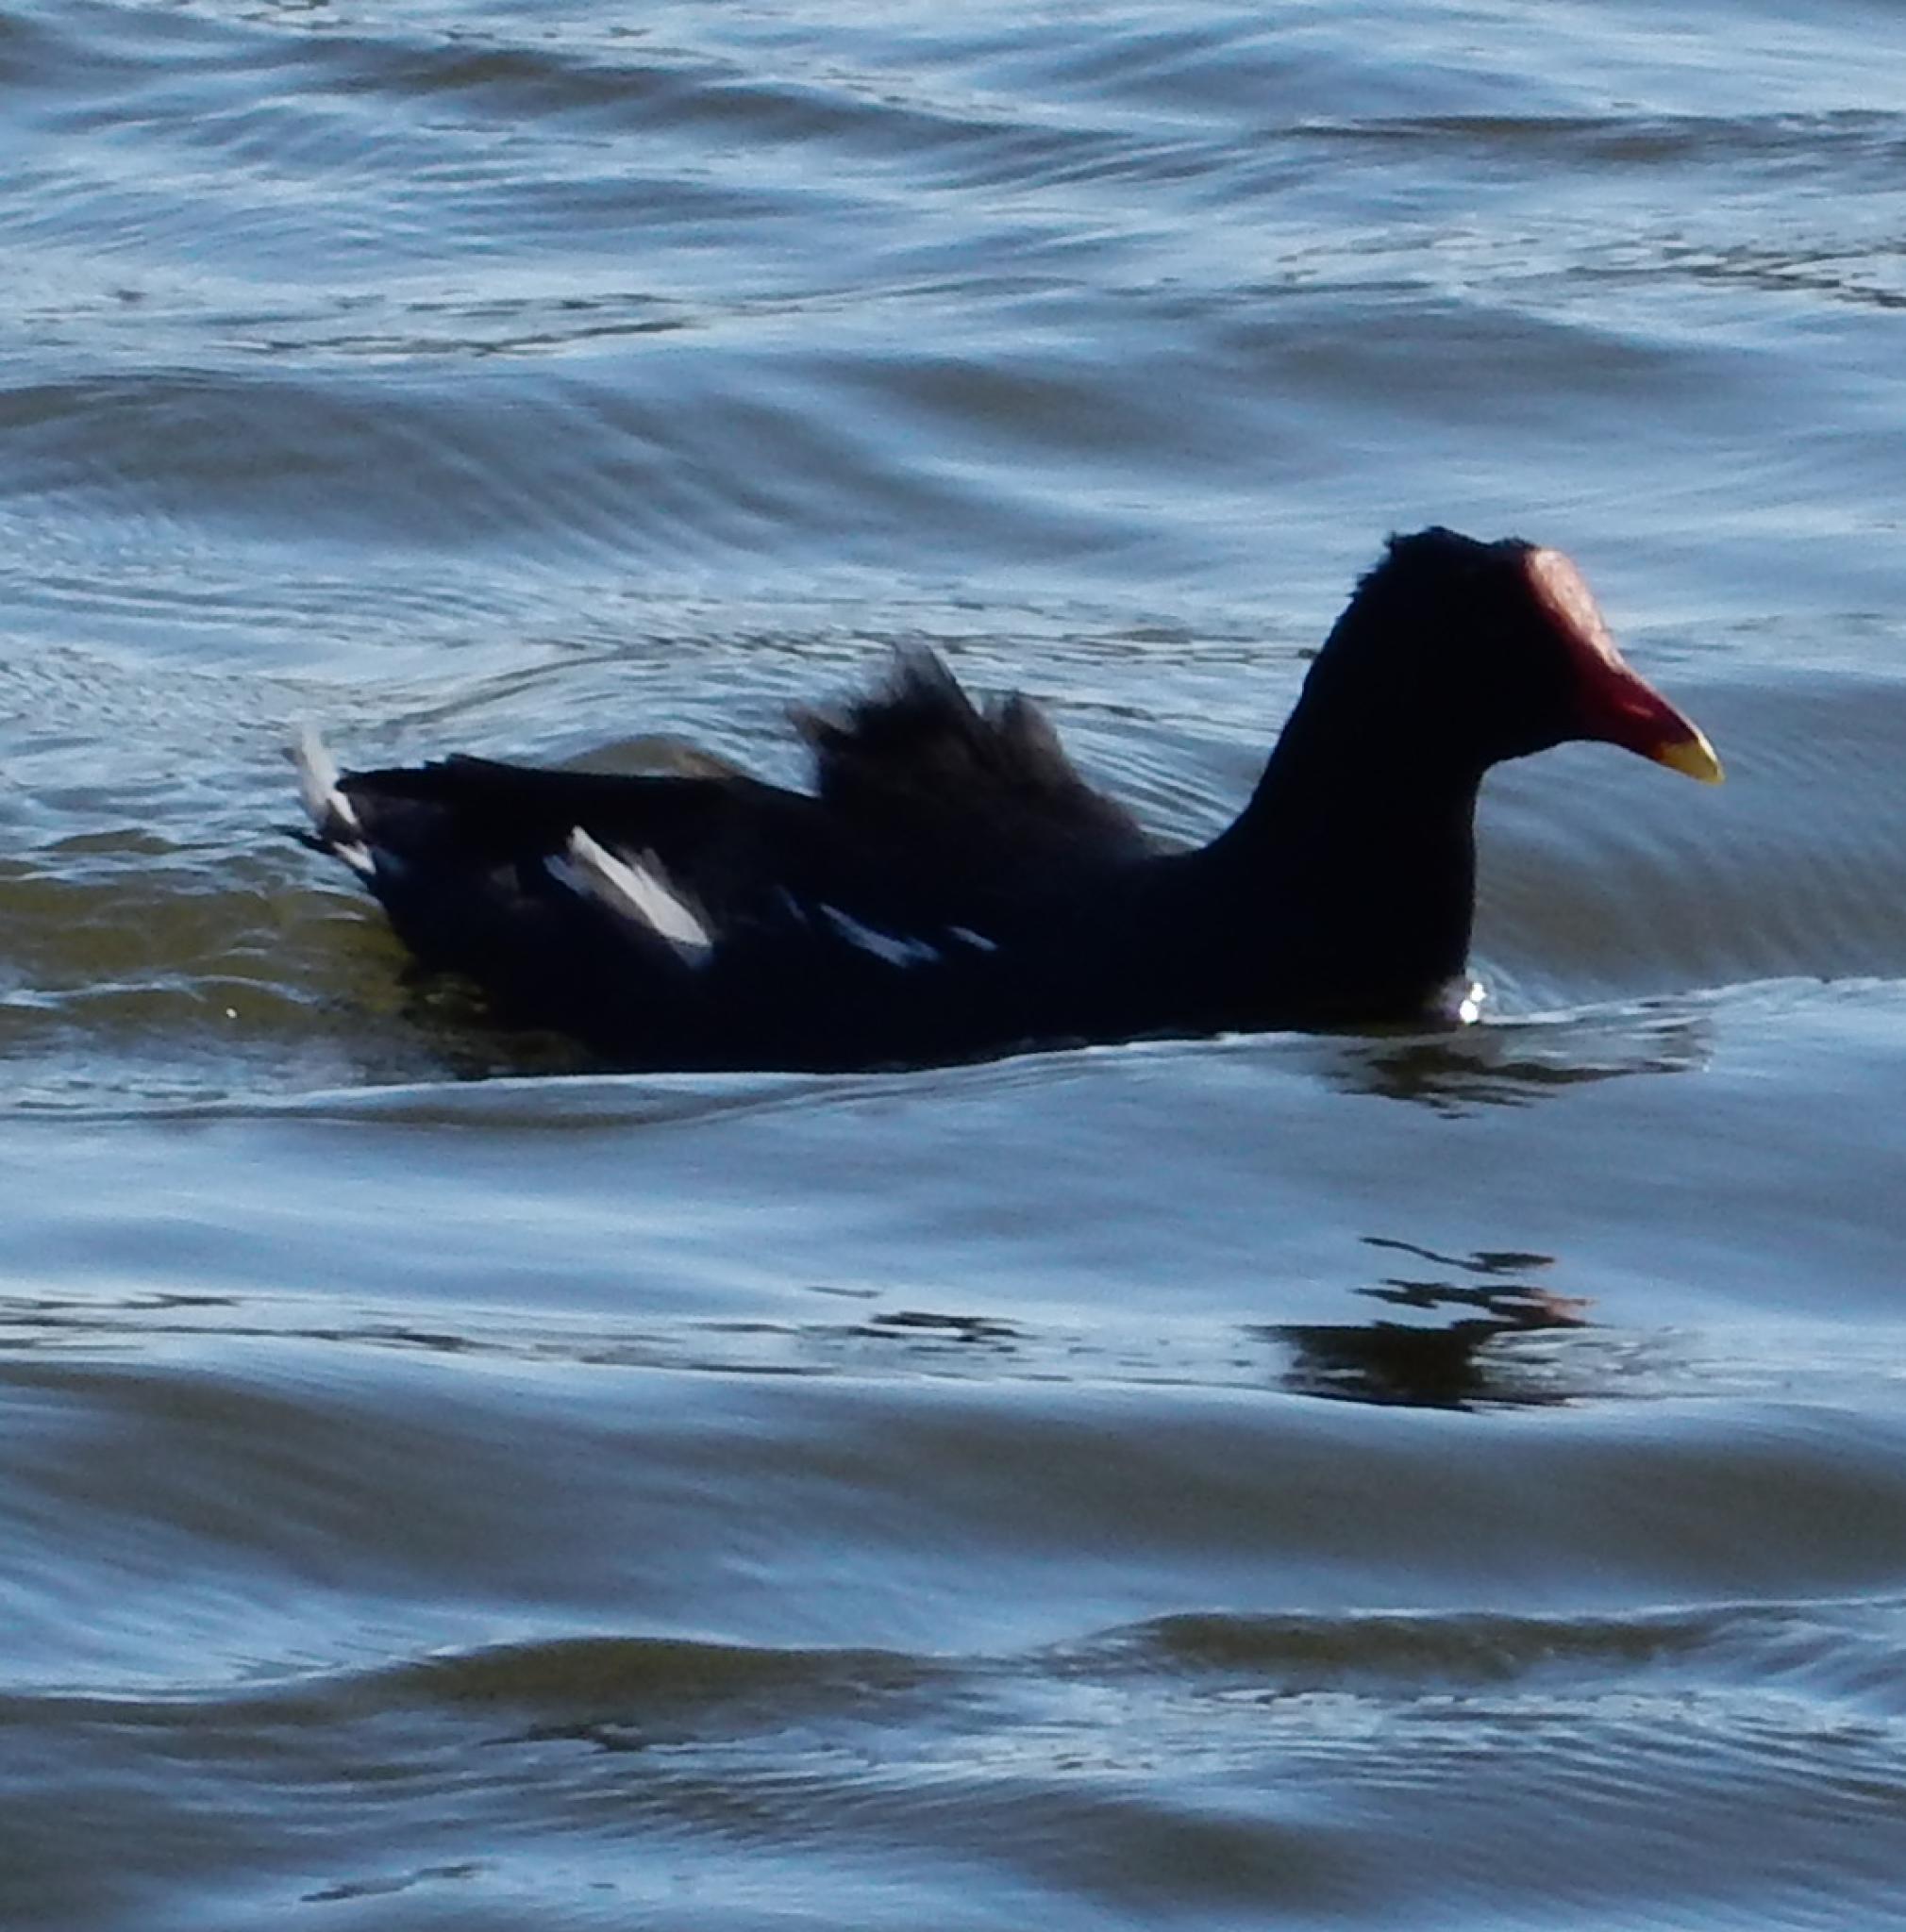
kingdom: Animalia
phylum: Chordata
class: Aves
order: Gruiformes
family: Rallidae
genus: Gallinula
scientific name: Gallinula chloropus
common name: Common moorhen
